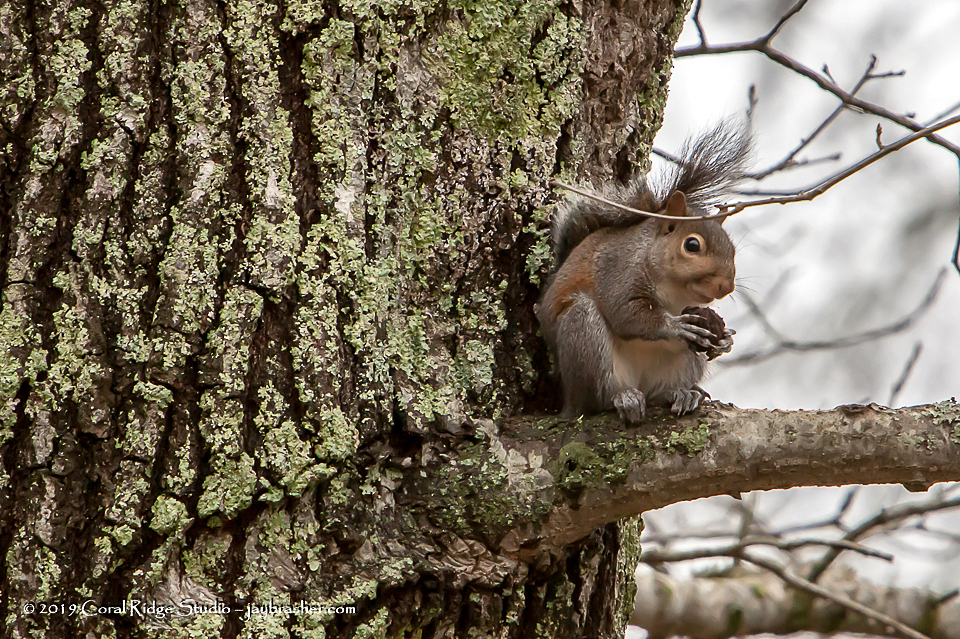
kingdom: Animalia
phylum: Chordata
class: Mammalia
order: Rodentia
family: Sciuridae
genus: Sciurus
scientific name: Sciurus carolinensis
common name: Eastern gray squirrel
